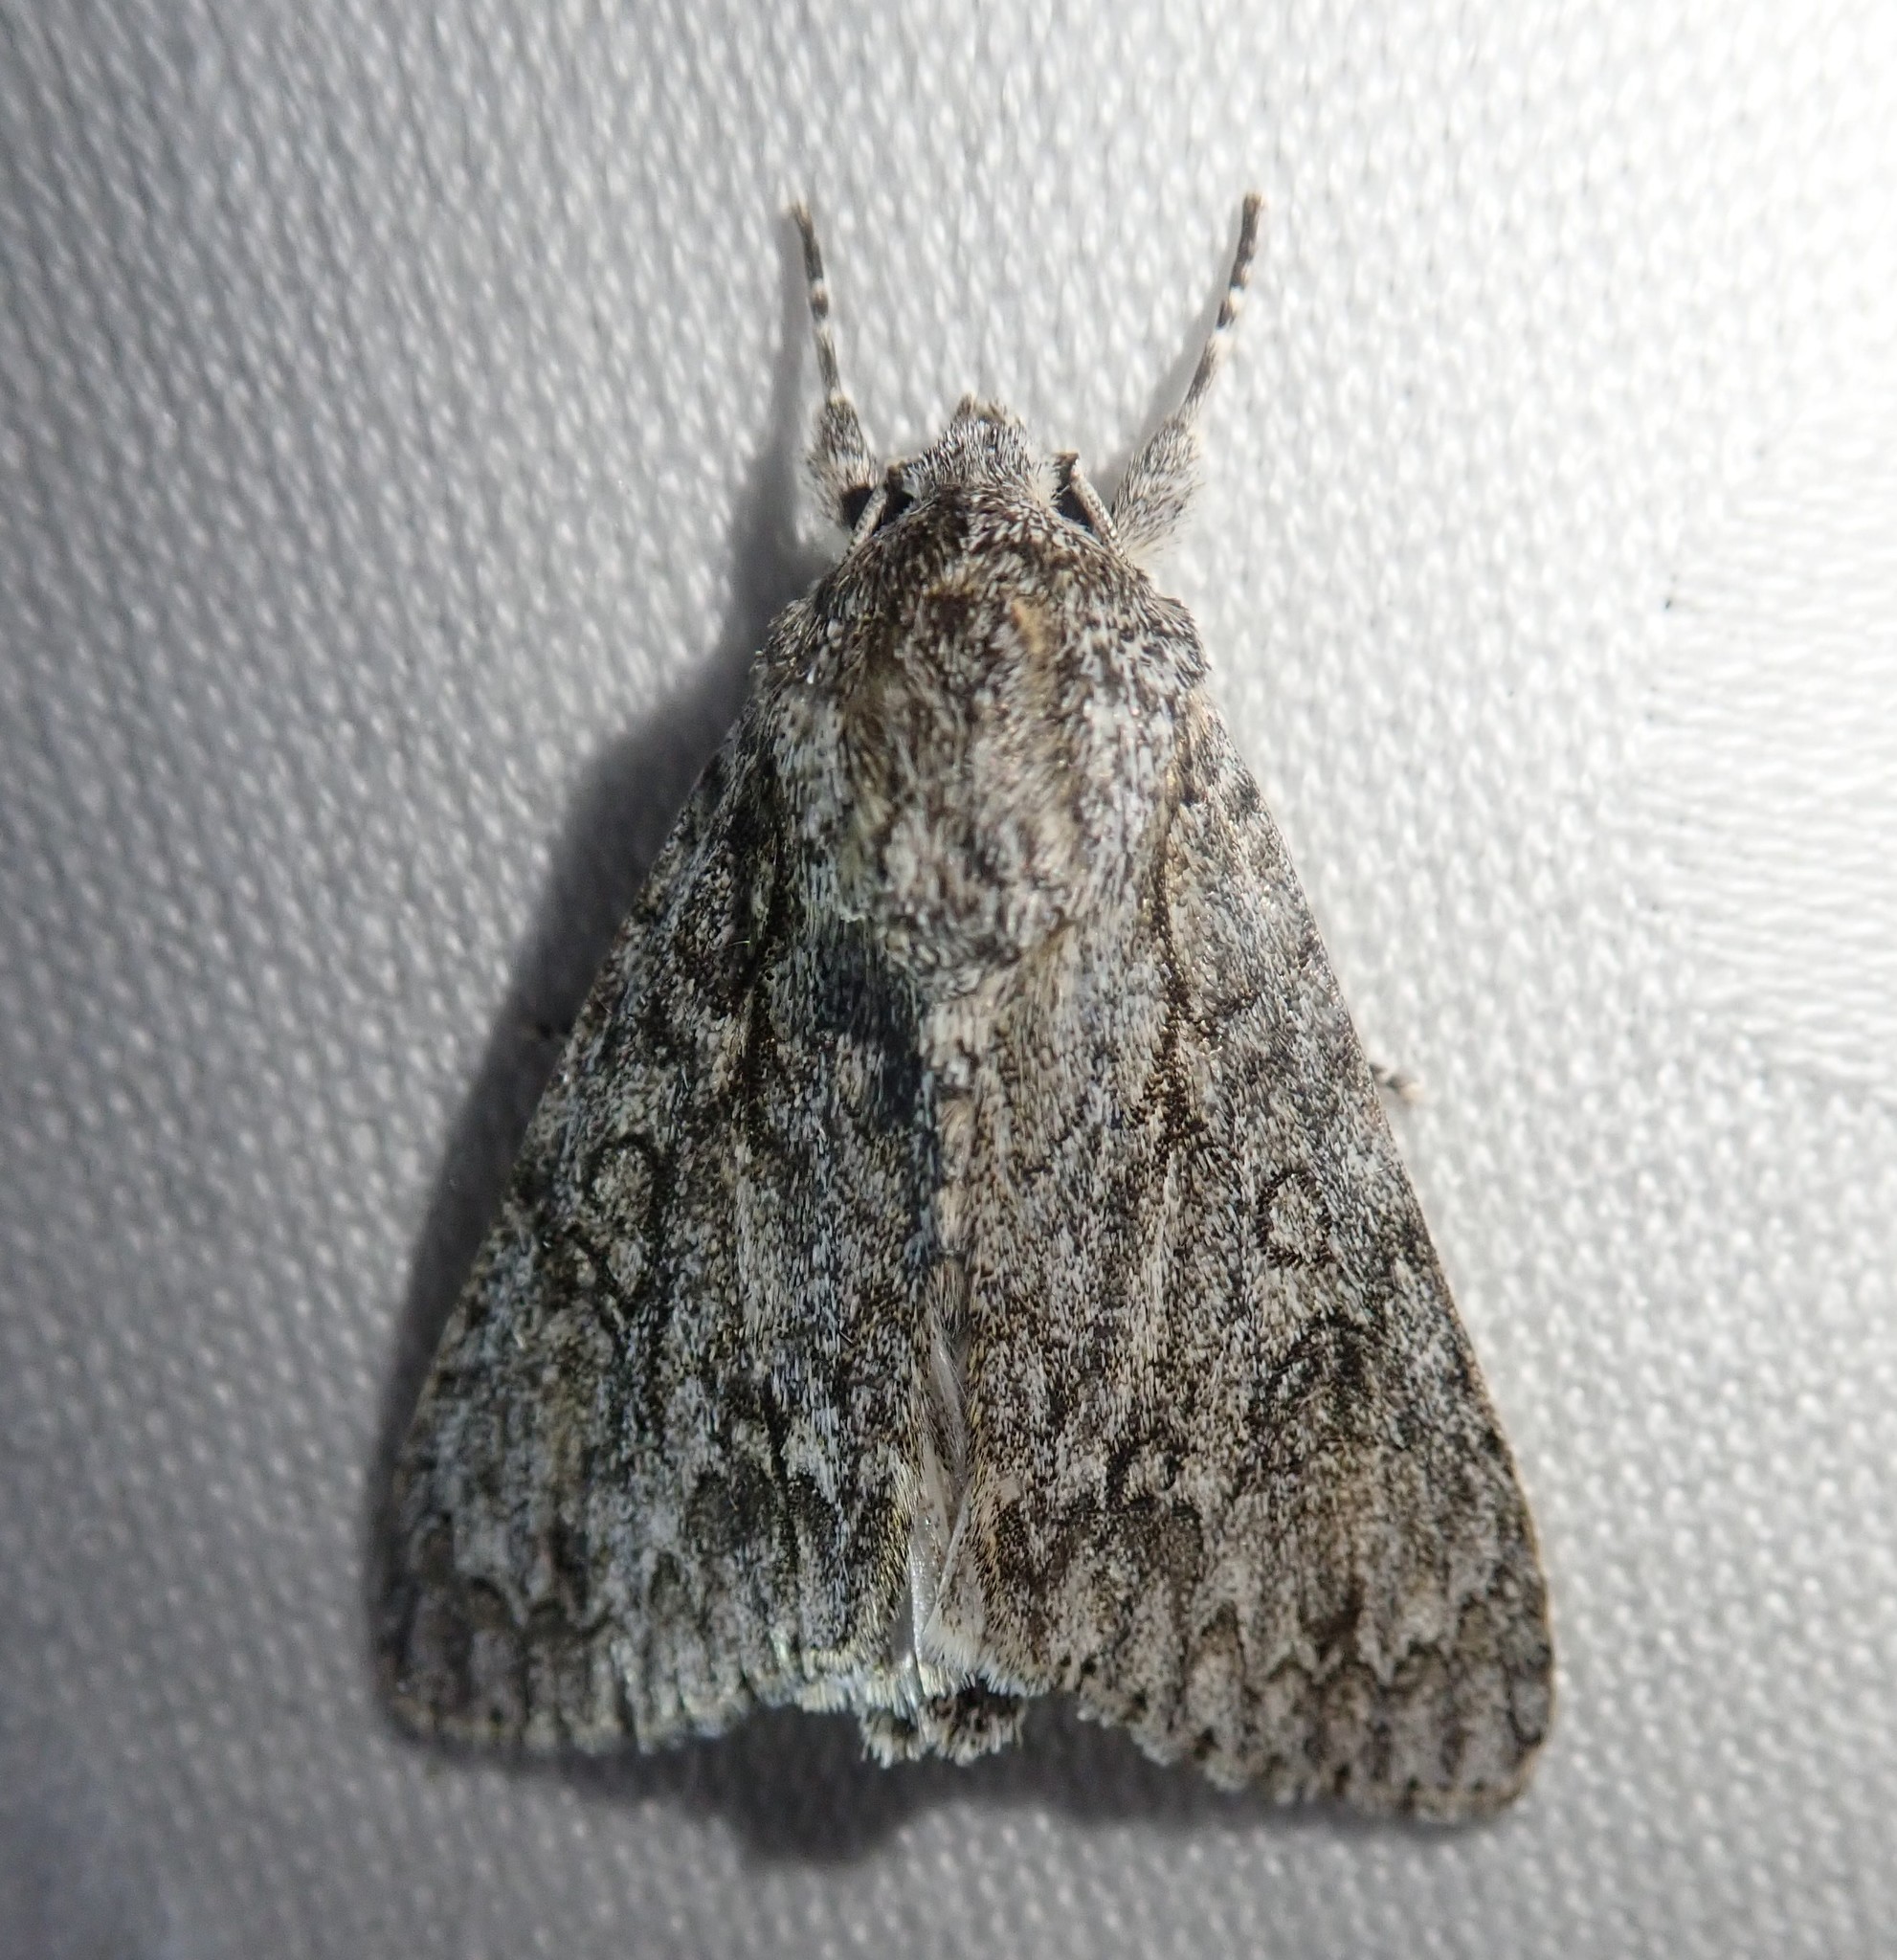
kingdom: Animalia
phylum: Arthropoda
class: Insecta
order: Lepidoptera
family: Noctuidae
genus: Acronicta
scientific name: Acronicta aceris
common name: Sycamore
